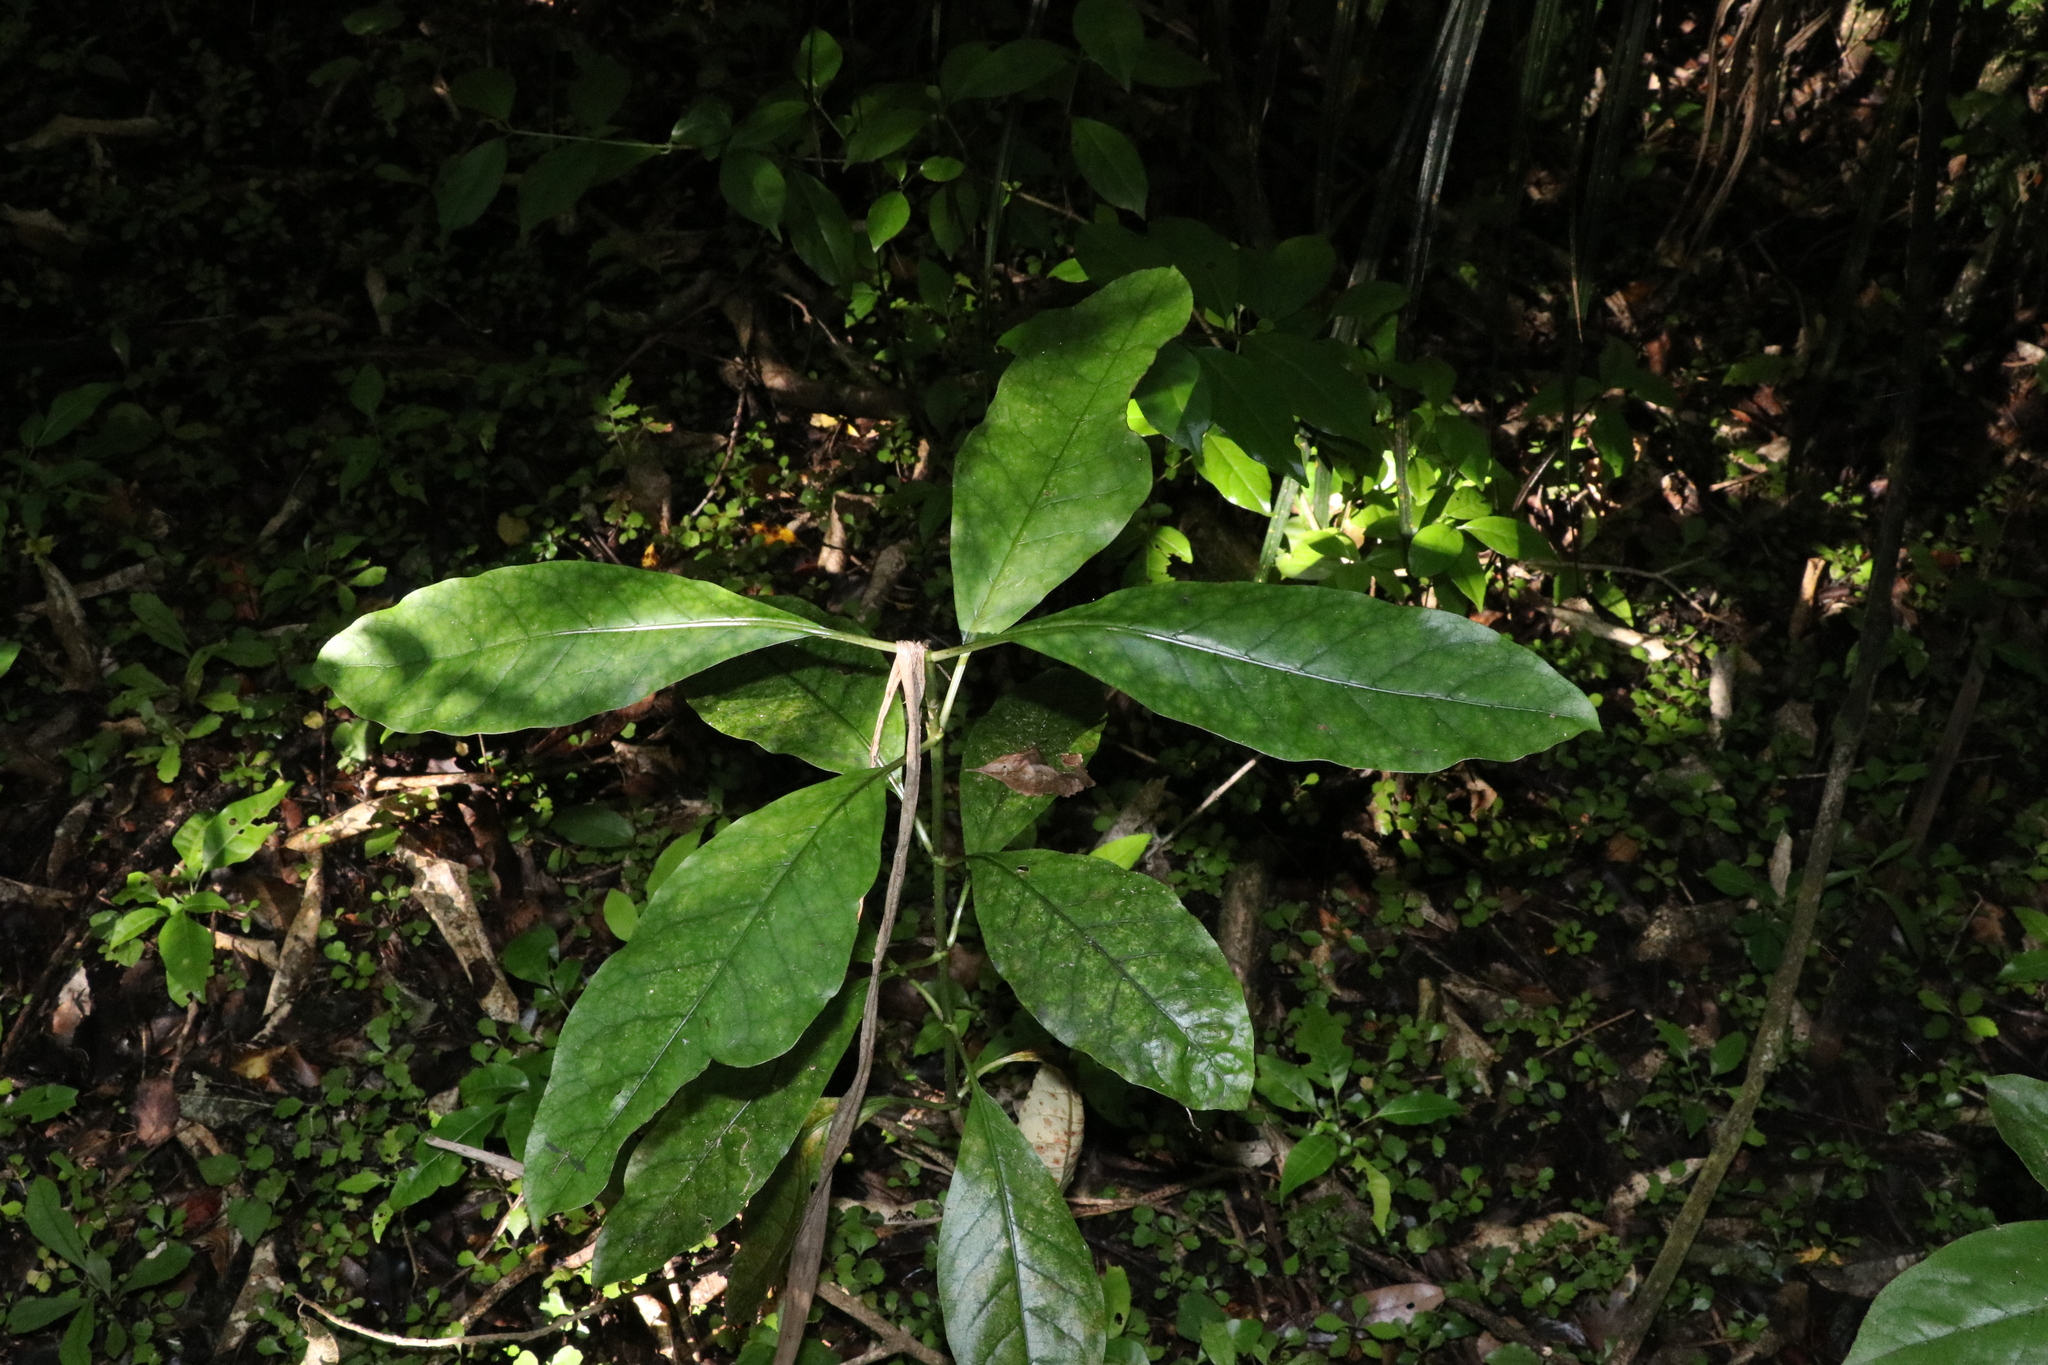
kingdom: Plantae
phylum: Tracheophyta
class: Magnoliopsida
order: Gentianales
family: Rubiaceae
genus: Coprosma
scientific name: Coprosma autumnalis
